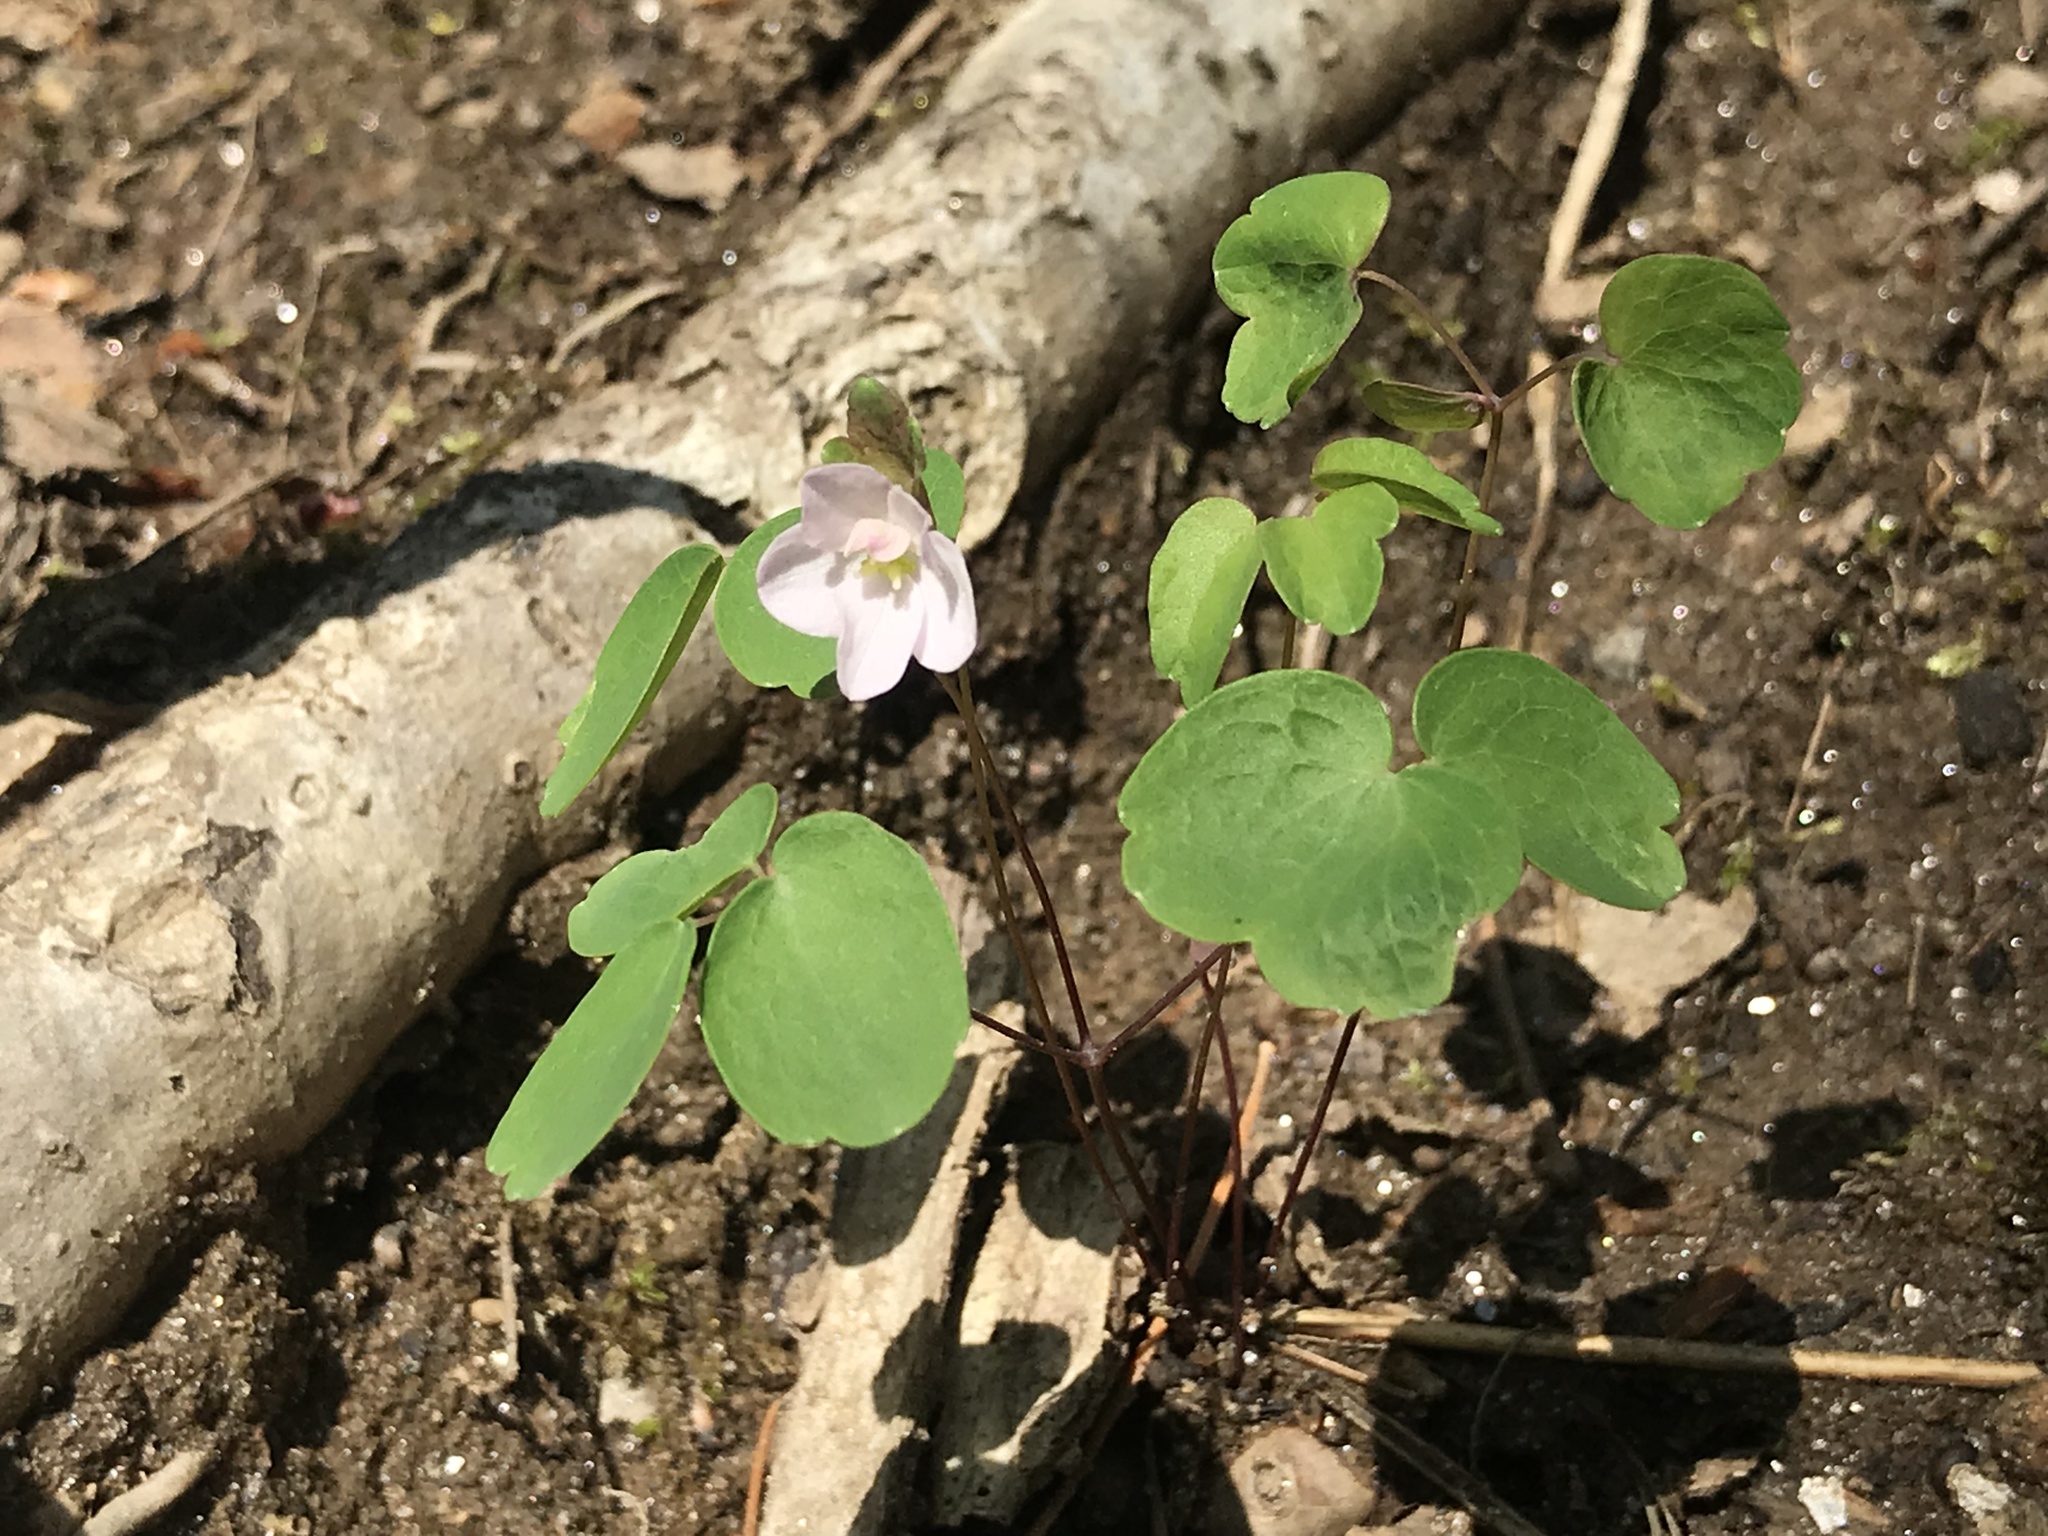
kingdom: Plantae
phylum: Tracheophyta
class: Magnoliopsida
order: Ranunculales
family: Ranunculaceae
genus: Thalictrum
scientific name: Thalictrum thalictroides
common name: Rue-anemone
